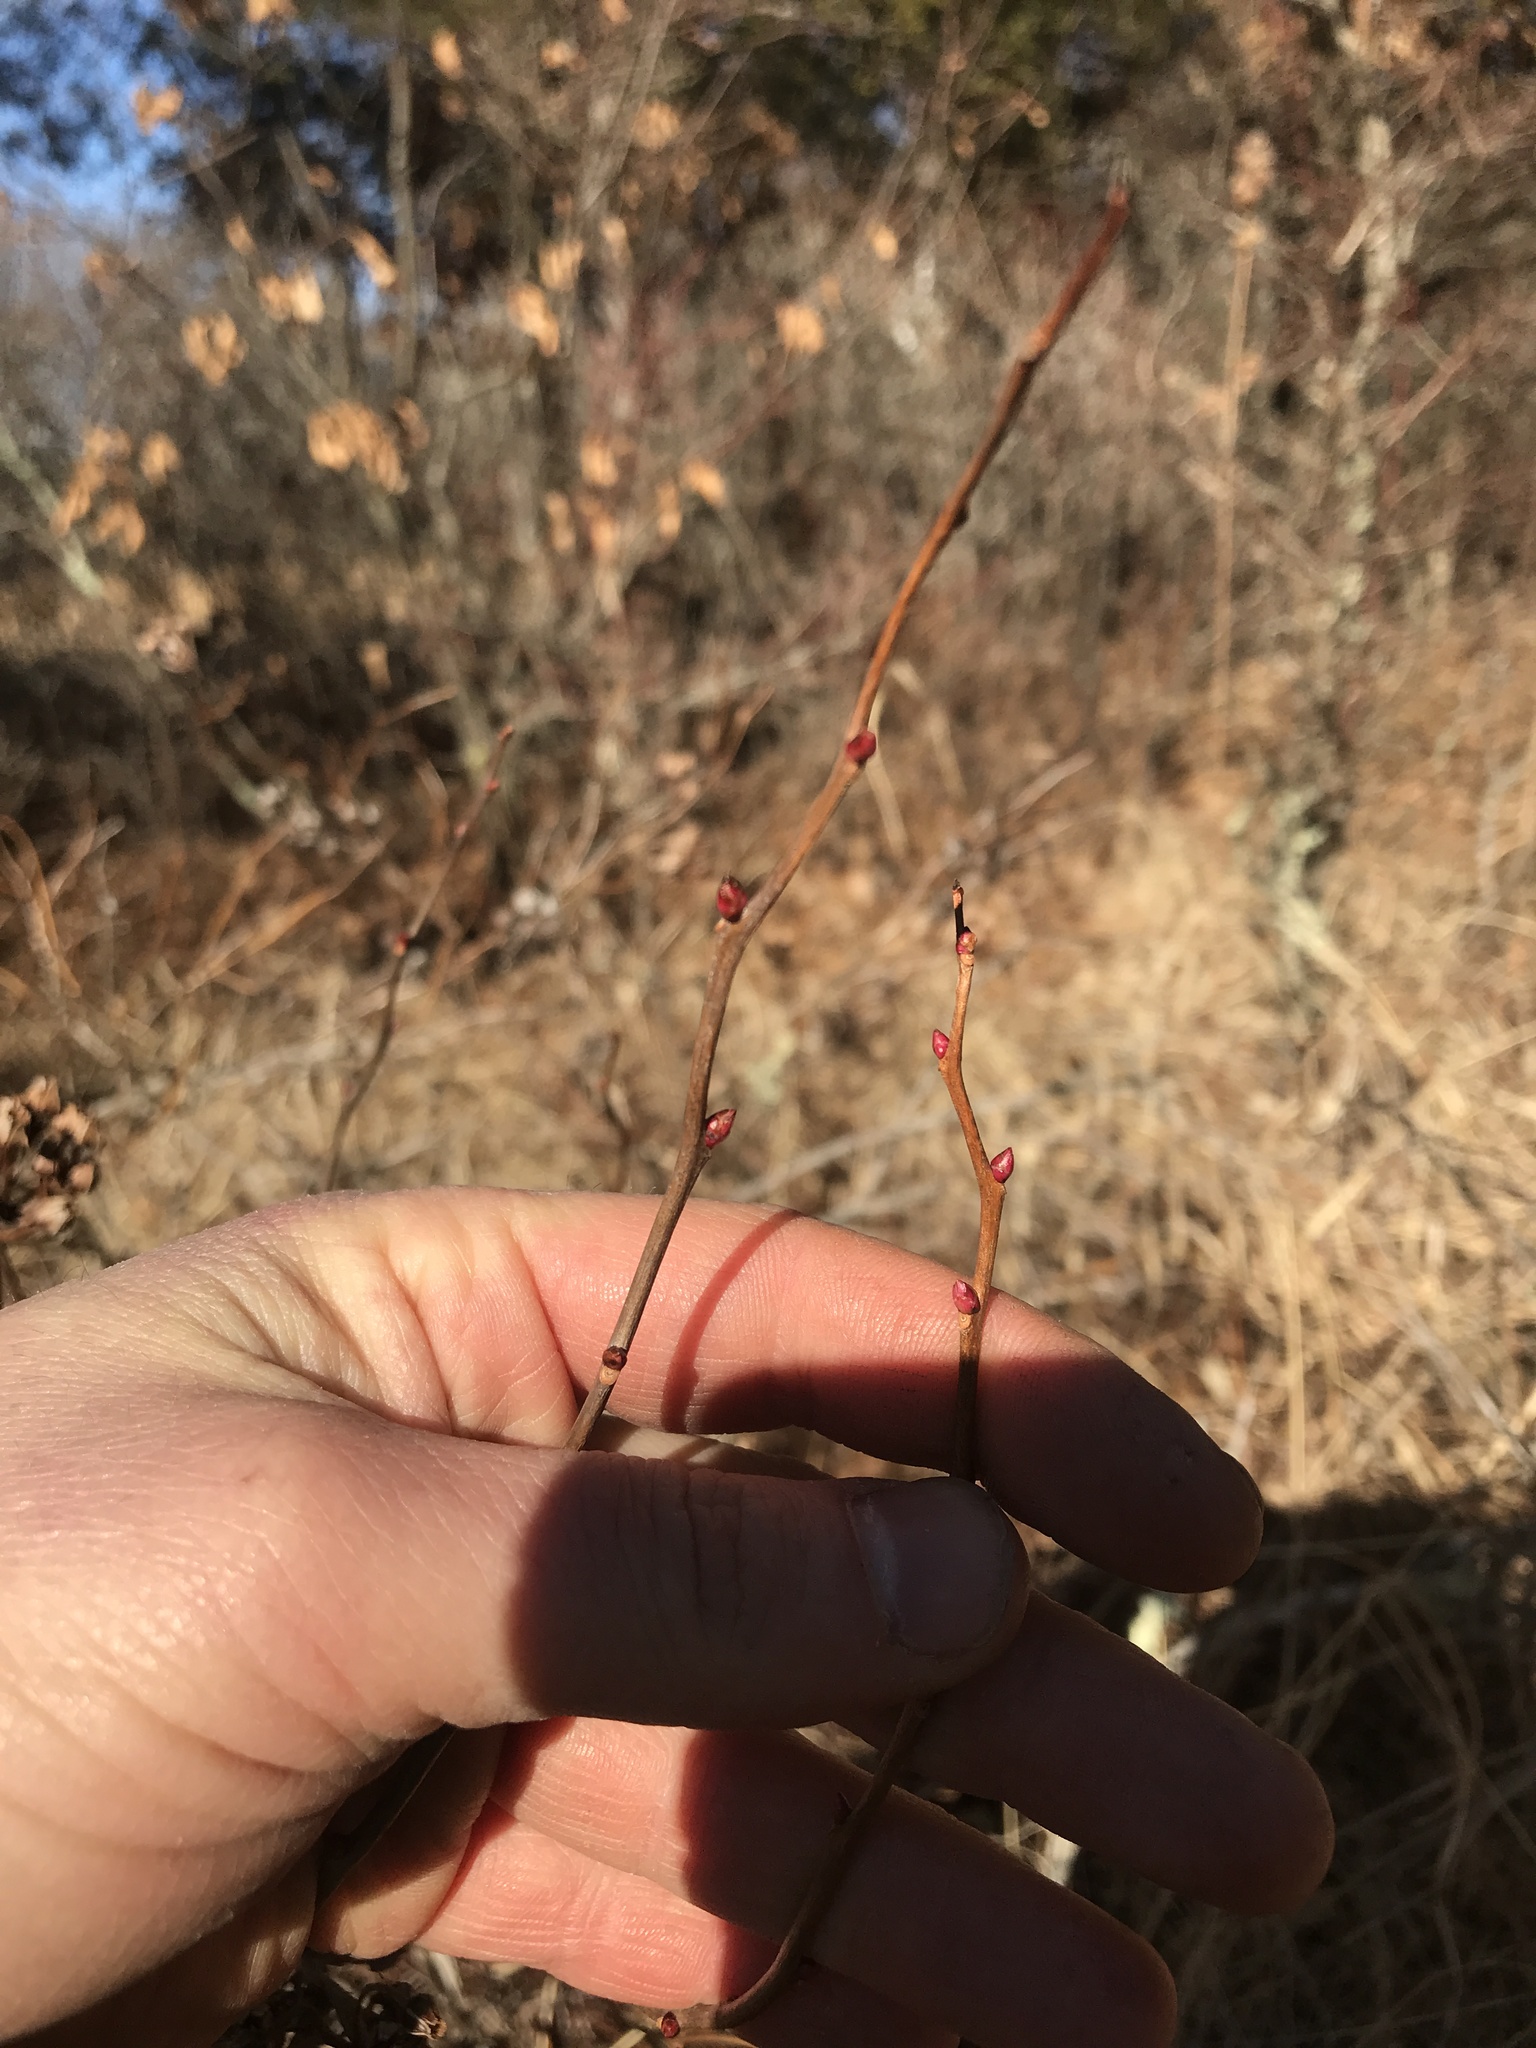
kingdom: Plantae
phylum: Tracheophyta
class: Magnoliopsida
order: Ericales
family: Ericaceae
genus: Lyonia
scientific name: Lyonia mariana
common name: Staggerbush
